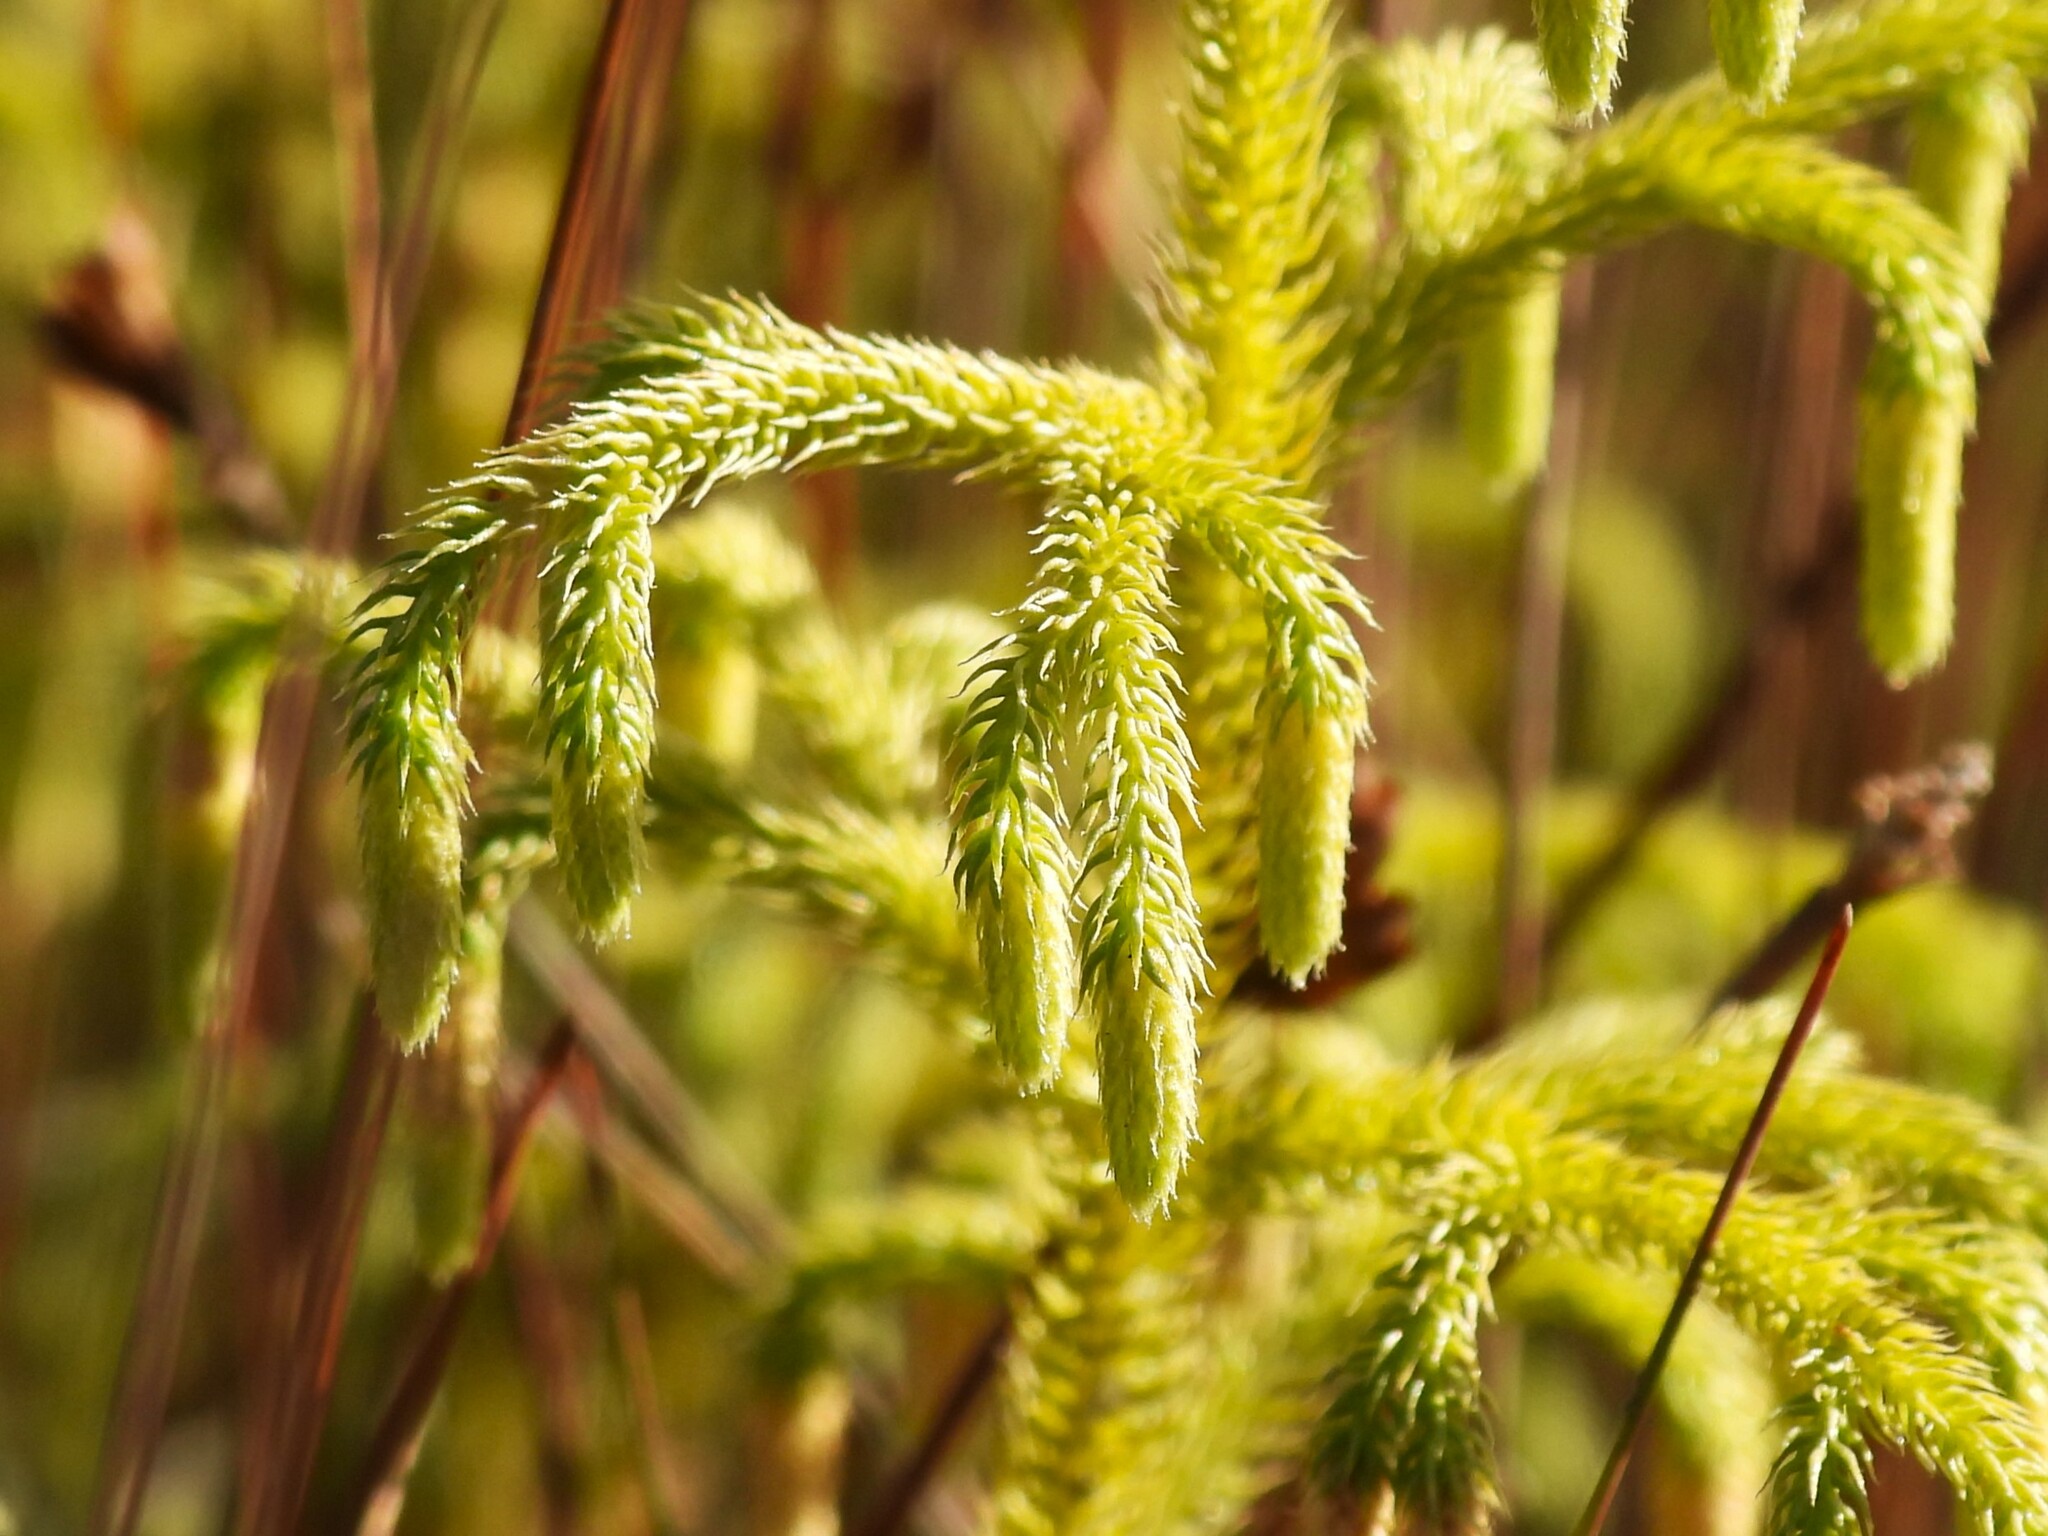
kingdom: Plantae
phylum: Tracheophyta
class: Lycopodiopsida
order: Lycopodiales
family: Lycopodiaceae
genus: Palhinhaea
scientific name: Palhinhaea cernua
